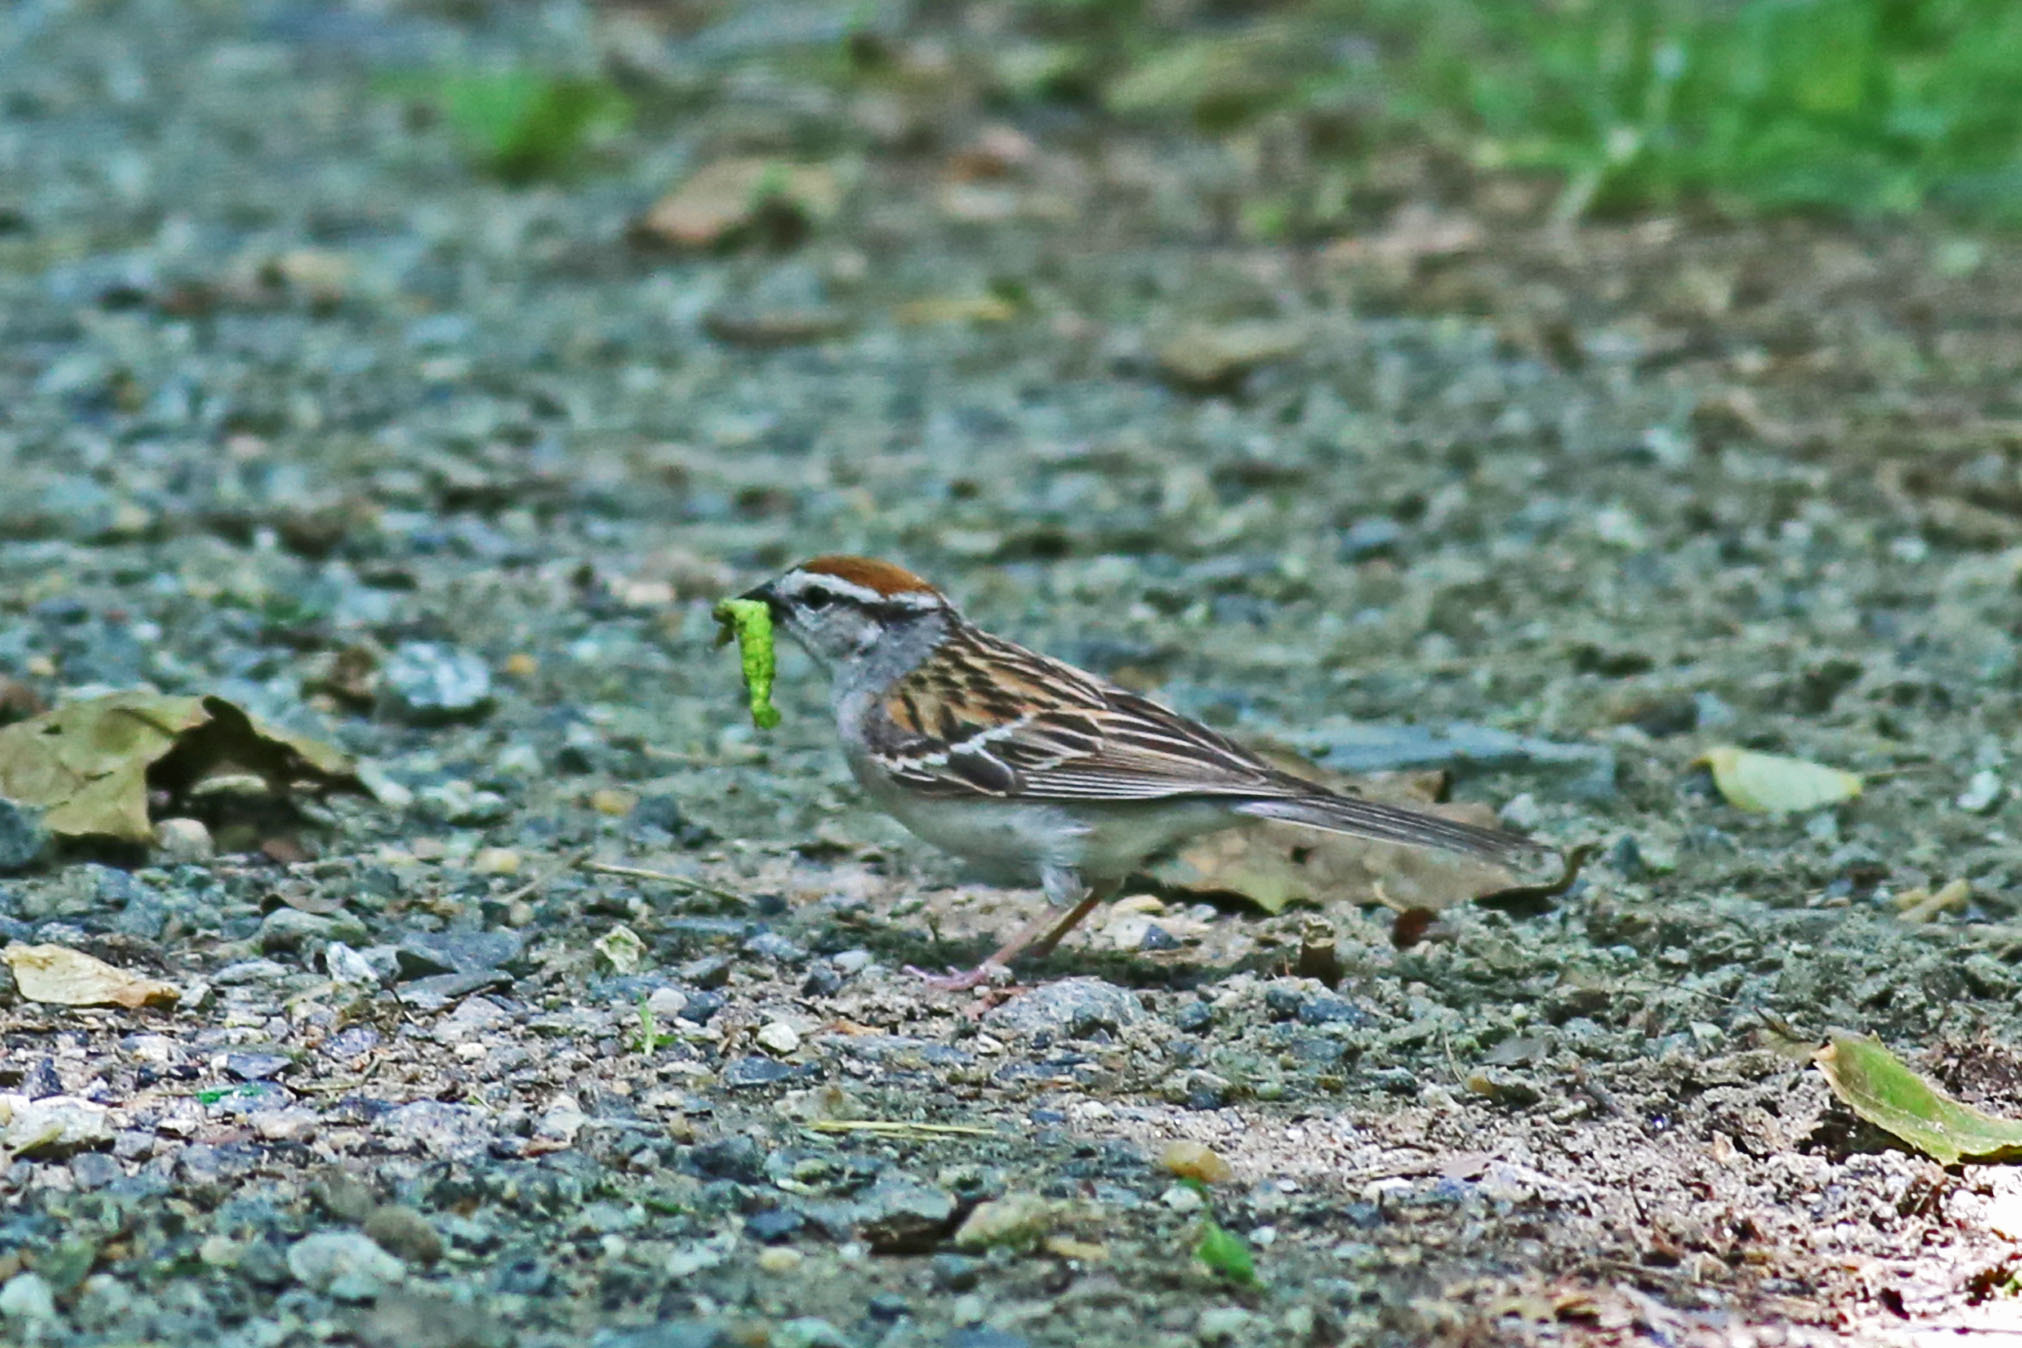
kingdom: Animalia
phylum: Chordata
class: Aves
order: Passeriformes
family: Passerellidae
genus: Spizella
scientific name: Spizella passerina
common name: Chipping sparrow
